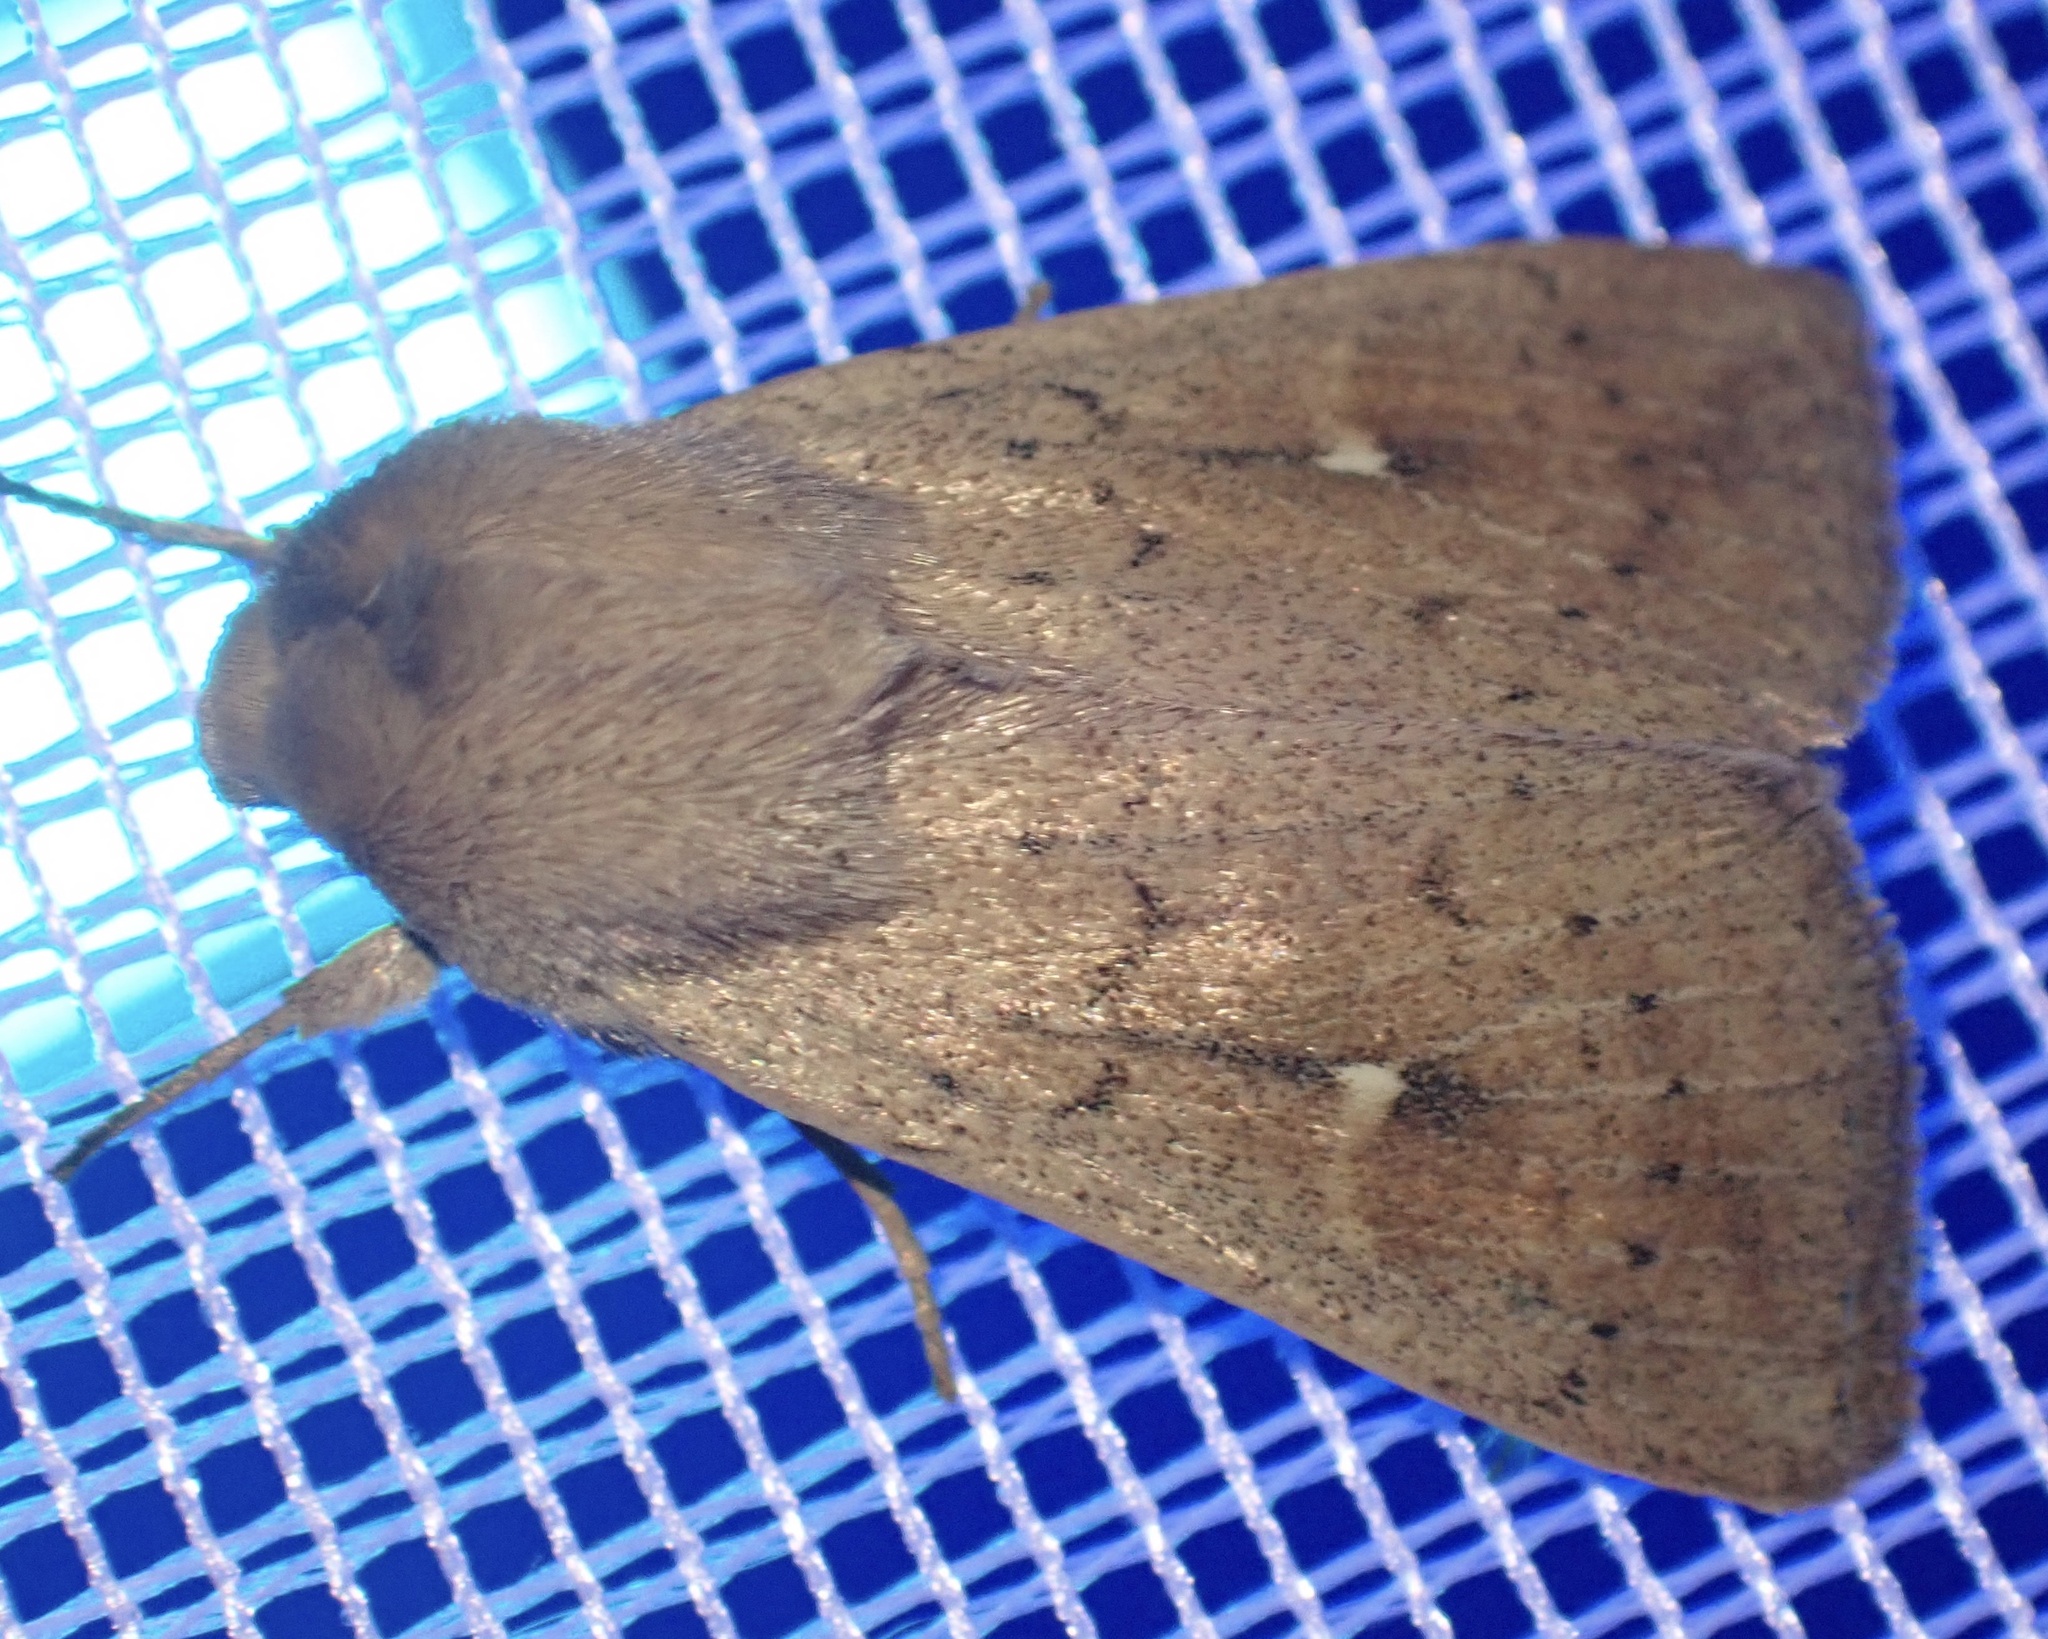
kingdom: Animalia
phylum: Arthropoda
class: Insecta
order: Lepidoptera
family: Noctuidae
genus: Mythimna
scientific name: Mythimna ferrago
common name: Clay
